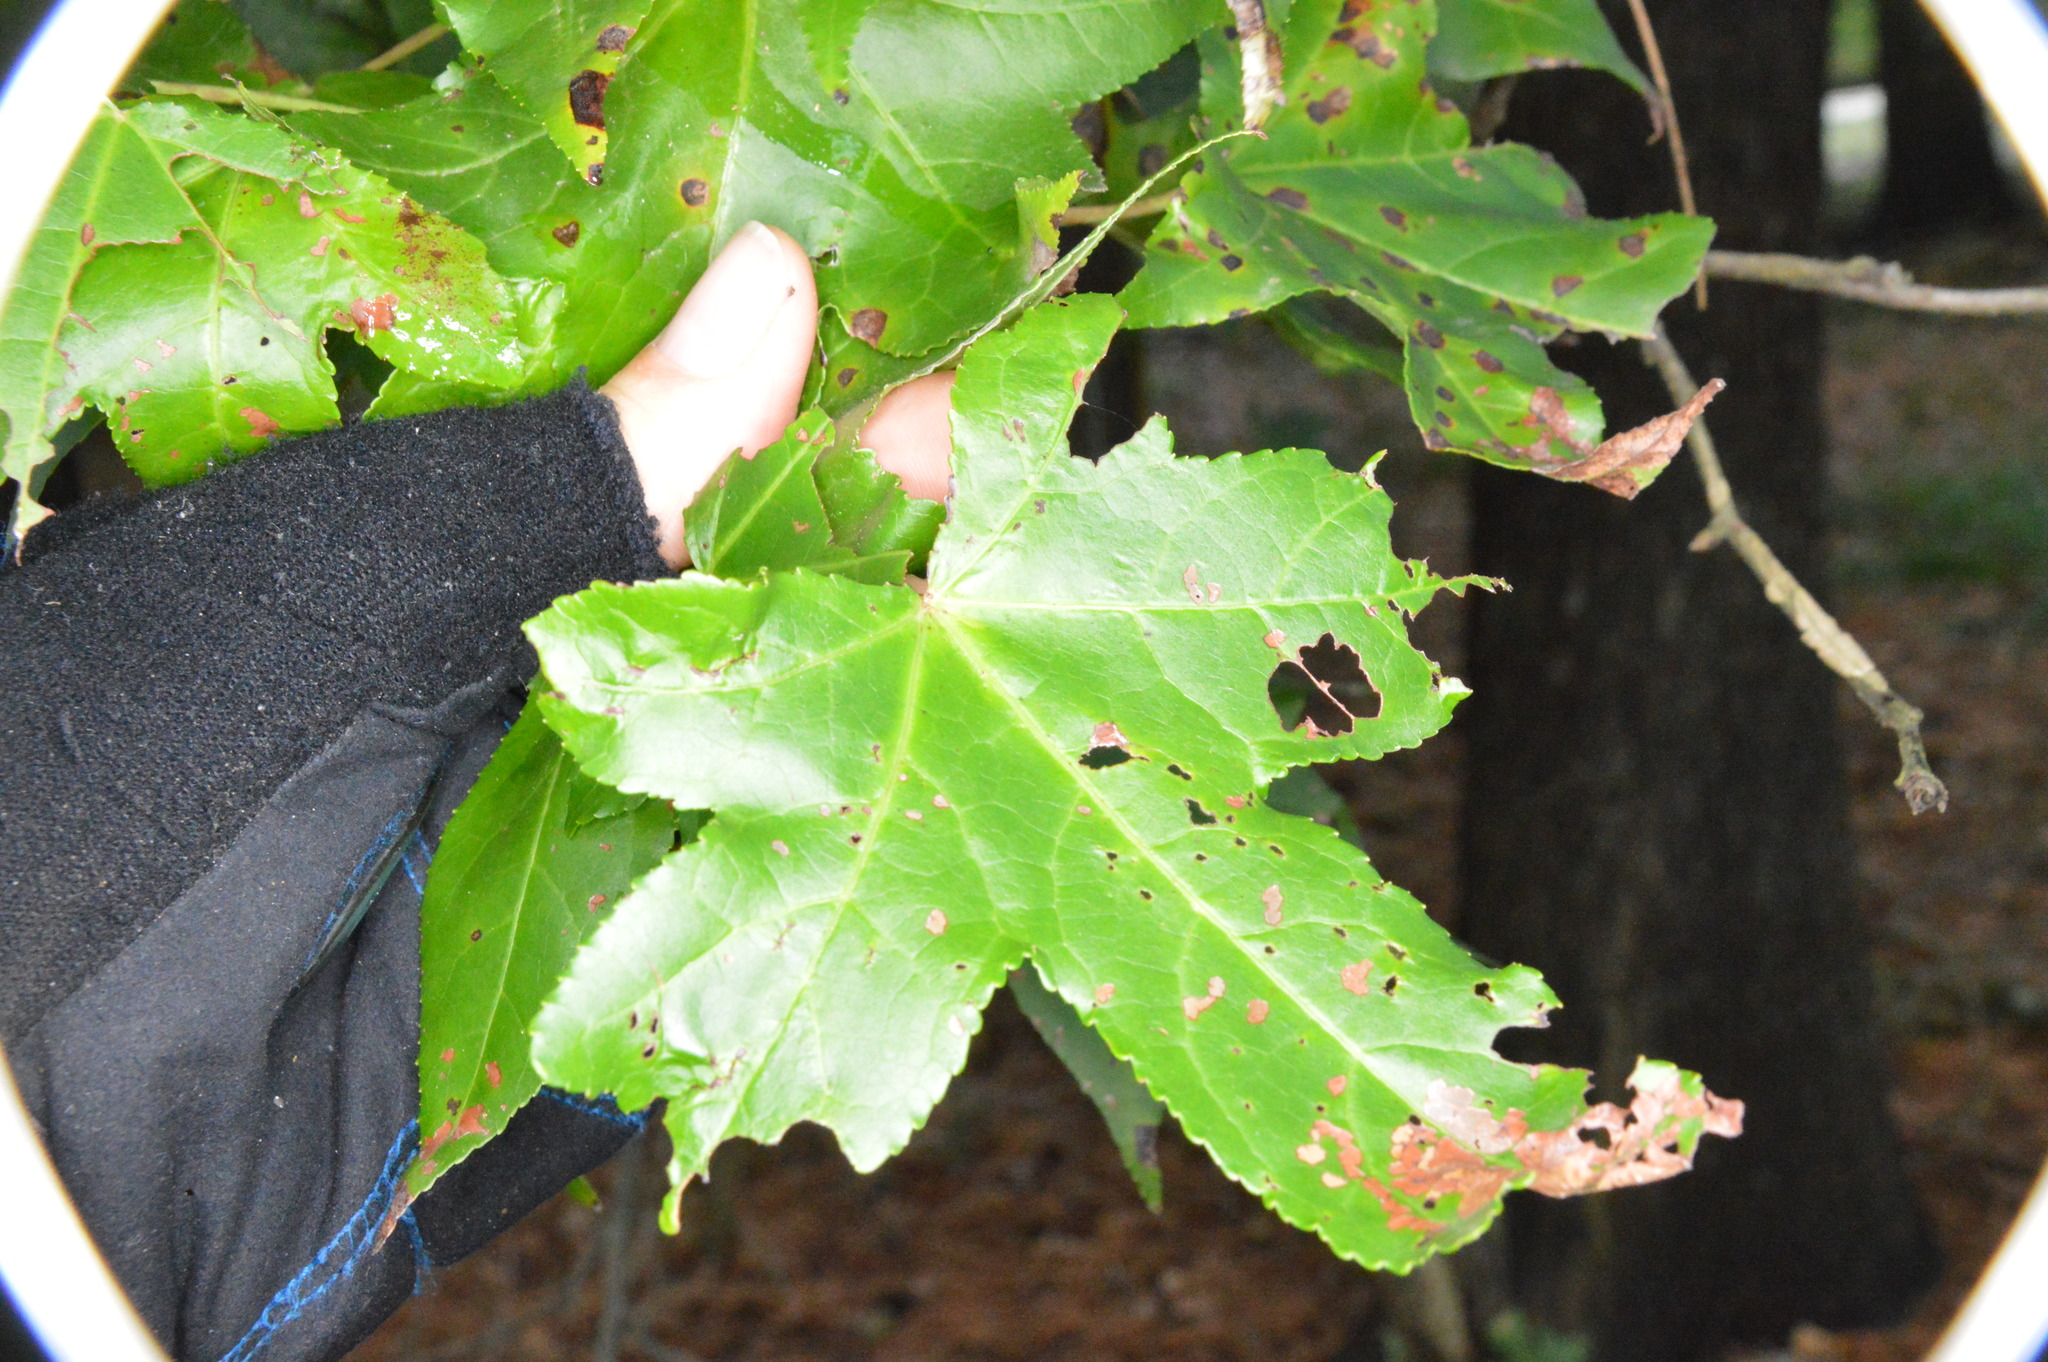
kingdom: Plantae
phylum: Tracheophyta
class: Magnoliopsida
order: Saxifragales
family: Altingiaceae
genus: Liquidambar
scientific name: Liquidambar styraciflua
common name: Sweet gum
